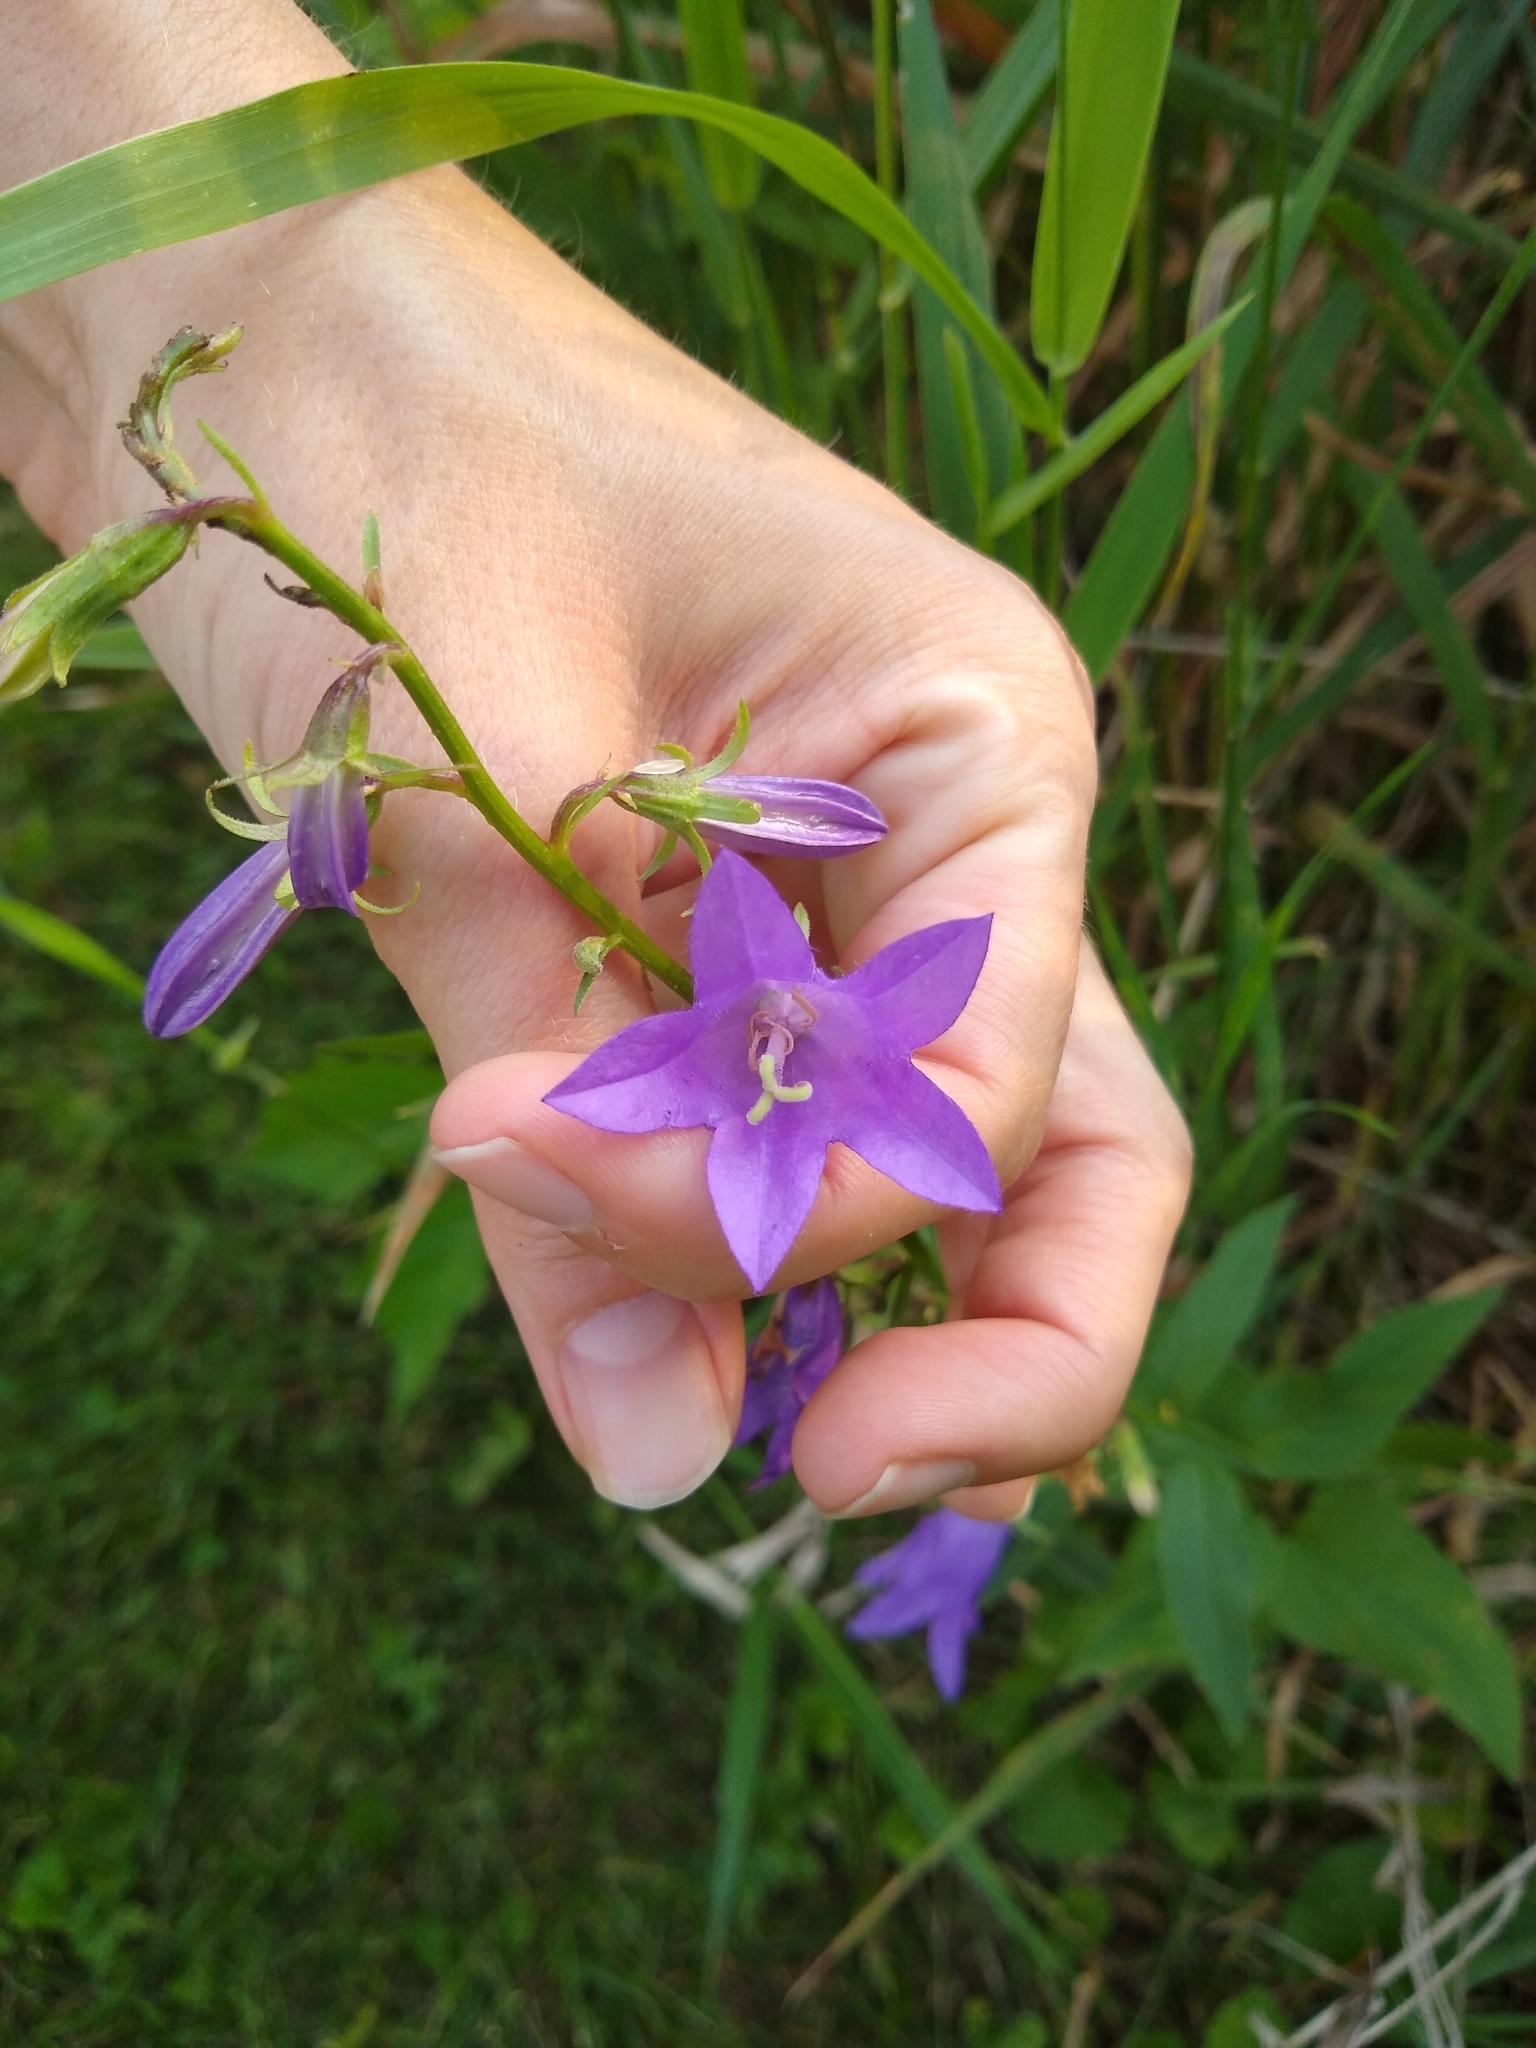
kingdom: Plantae
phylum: Tracheophyta
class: Magnoliopsida
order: Asterales
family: Campanulaceae
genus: Campanula
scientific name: Campanula rapunculoides
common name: Creeping bellflower
